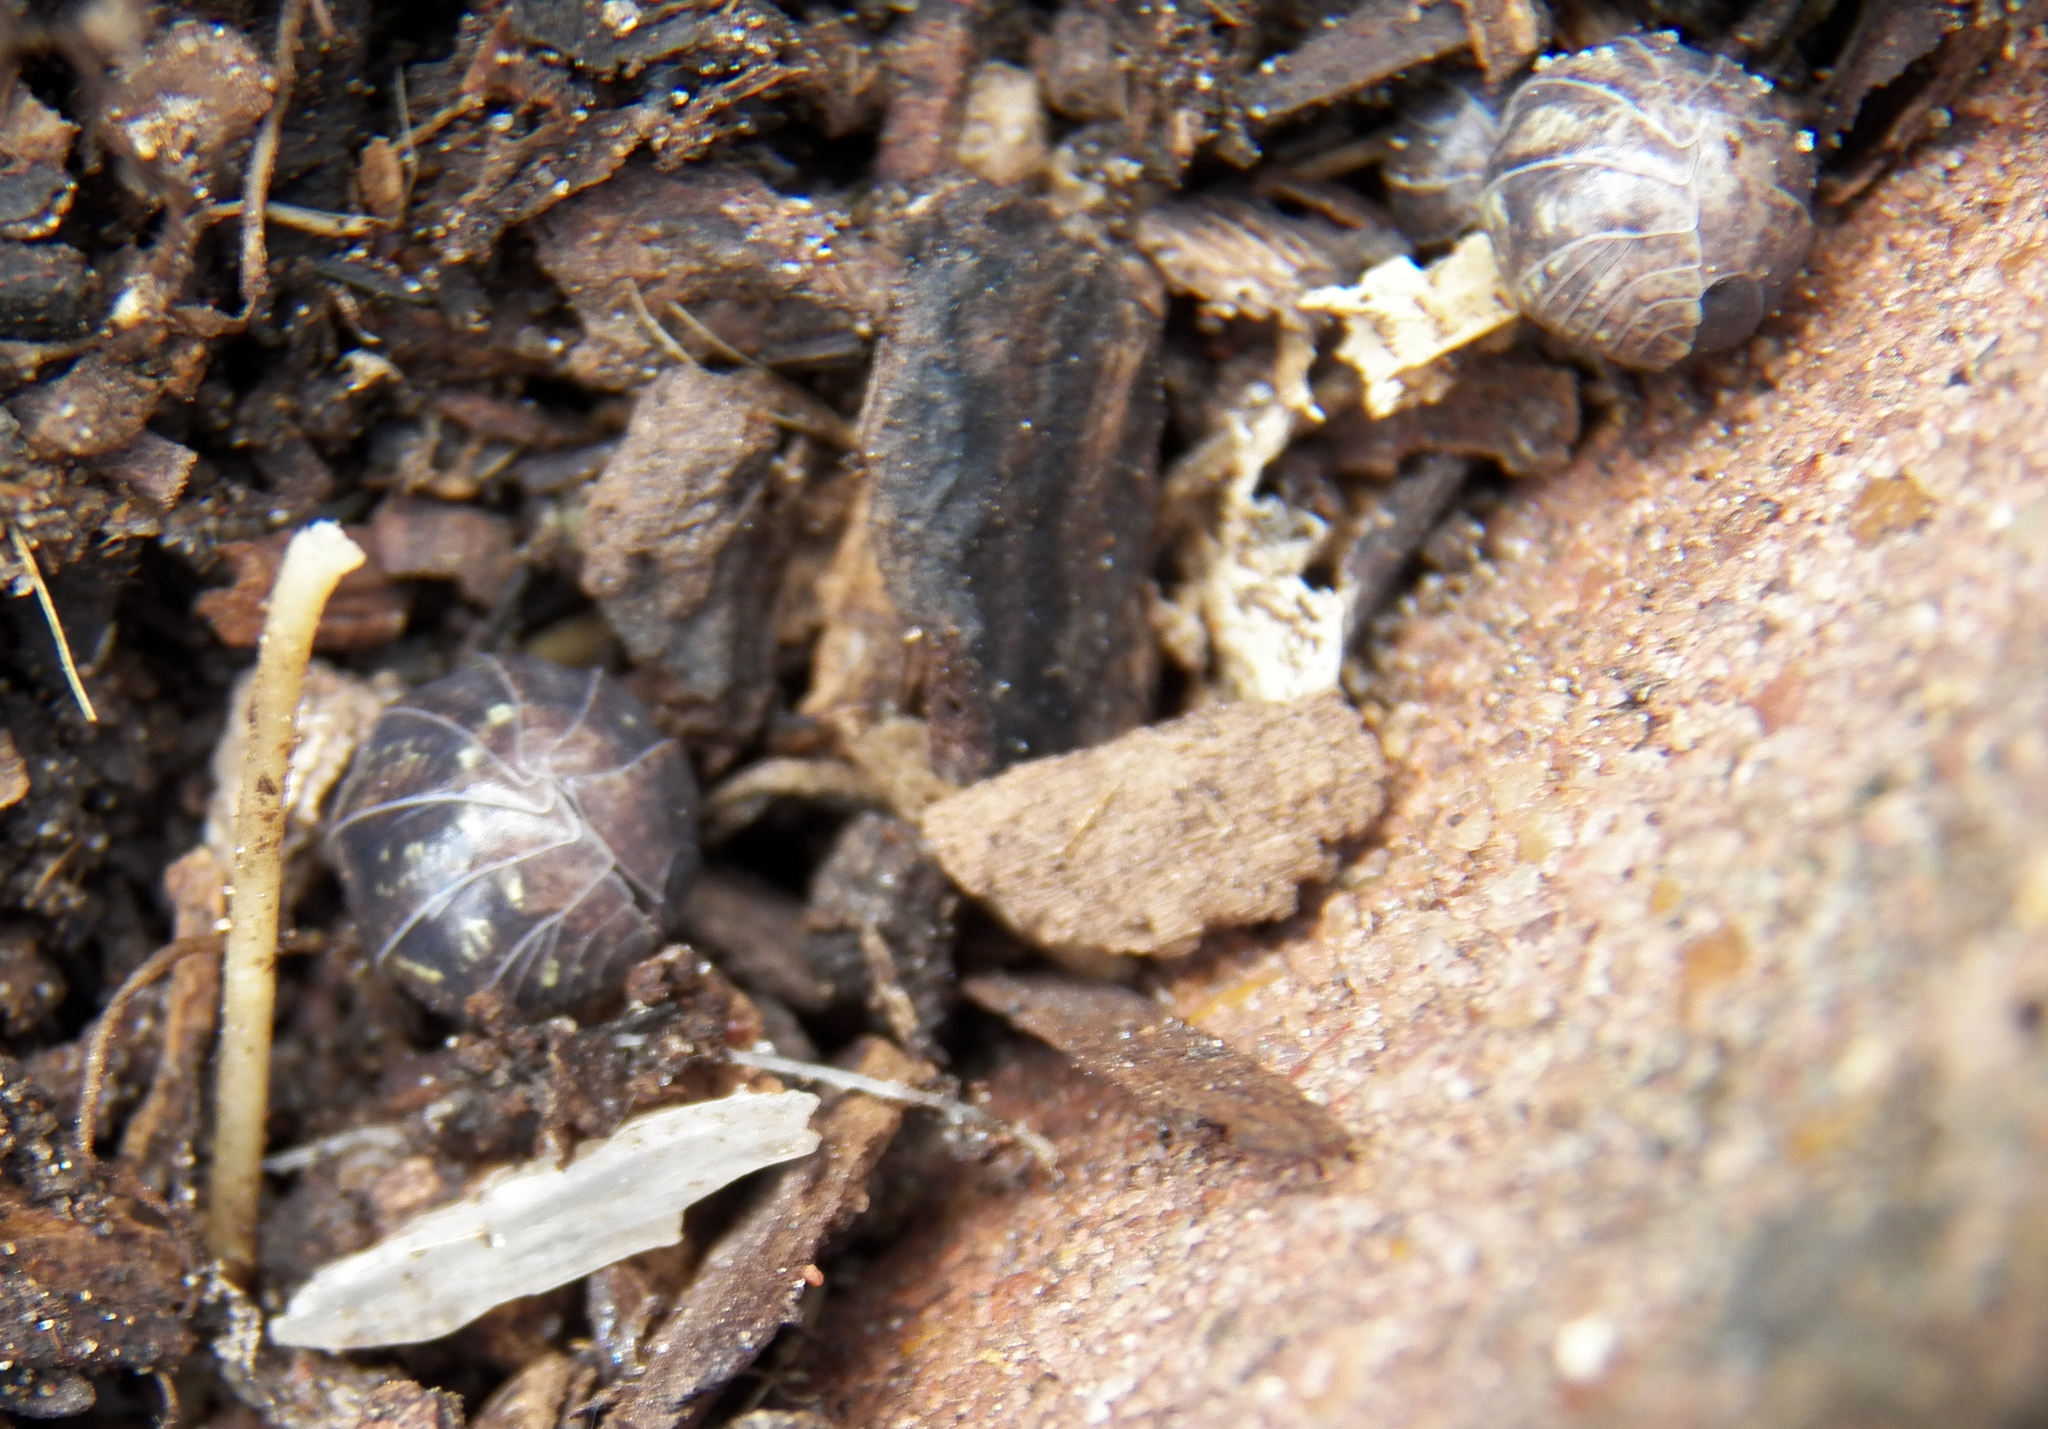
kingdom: Animalia
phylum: Arthropoda
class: Malacostraca
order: Isopoda
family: Armadillidiidae
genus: Armadillidium
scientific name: Armadillidium vulgare
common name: Common pill woodlouse
